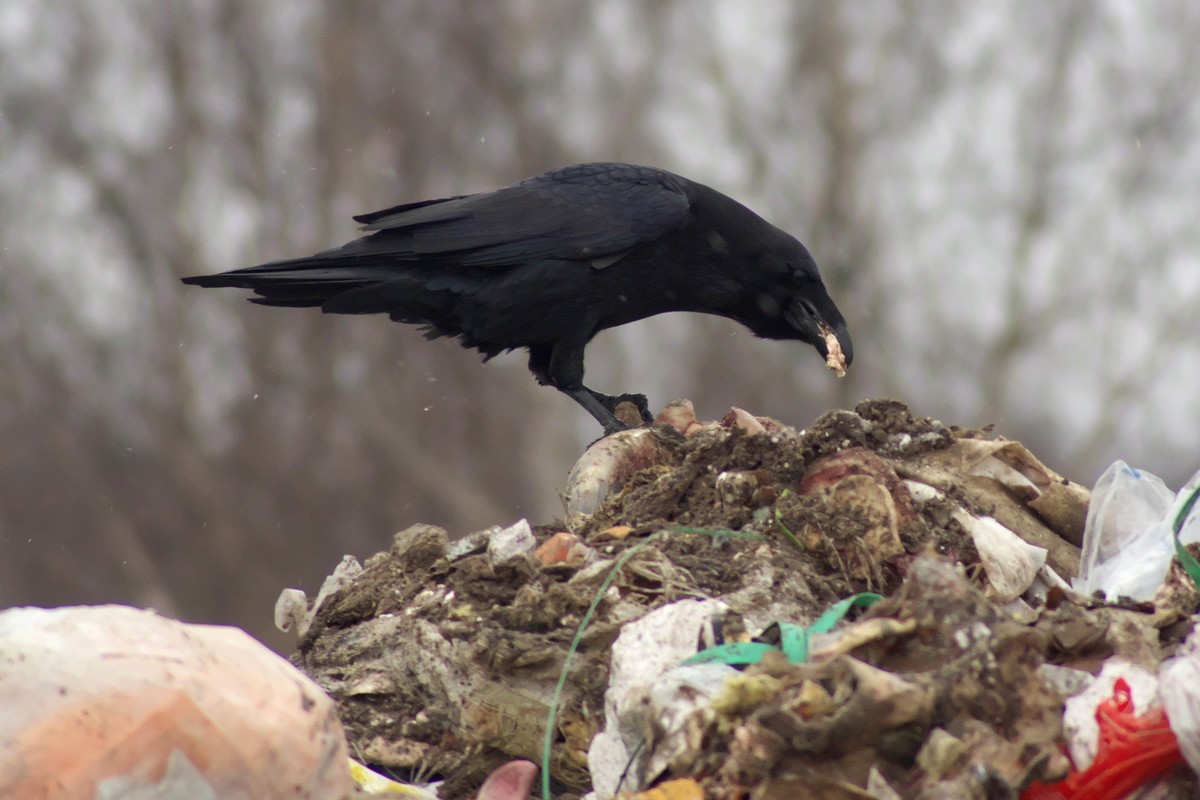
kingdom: Animalia
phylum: Chordata
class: Aves
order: Passeriformes
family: Corvidae
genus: Corvus
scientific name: Corvus corax
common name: Common raven
